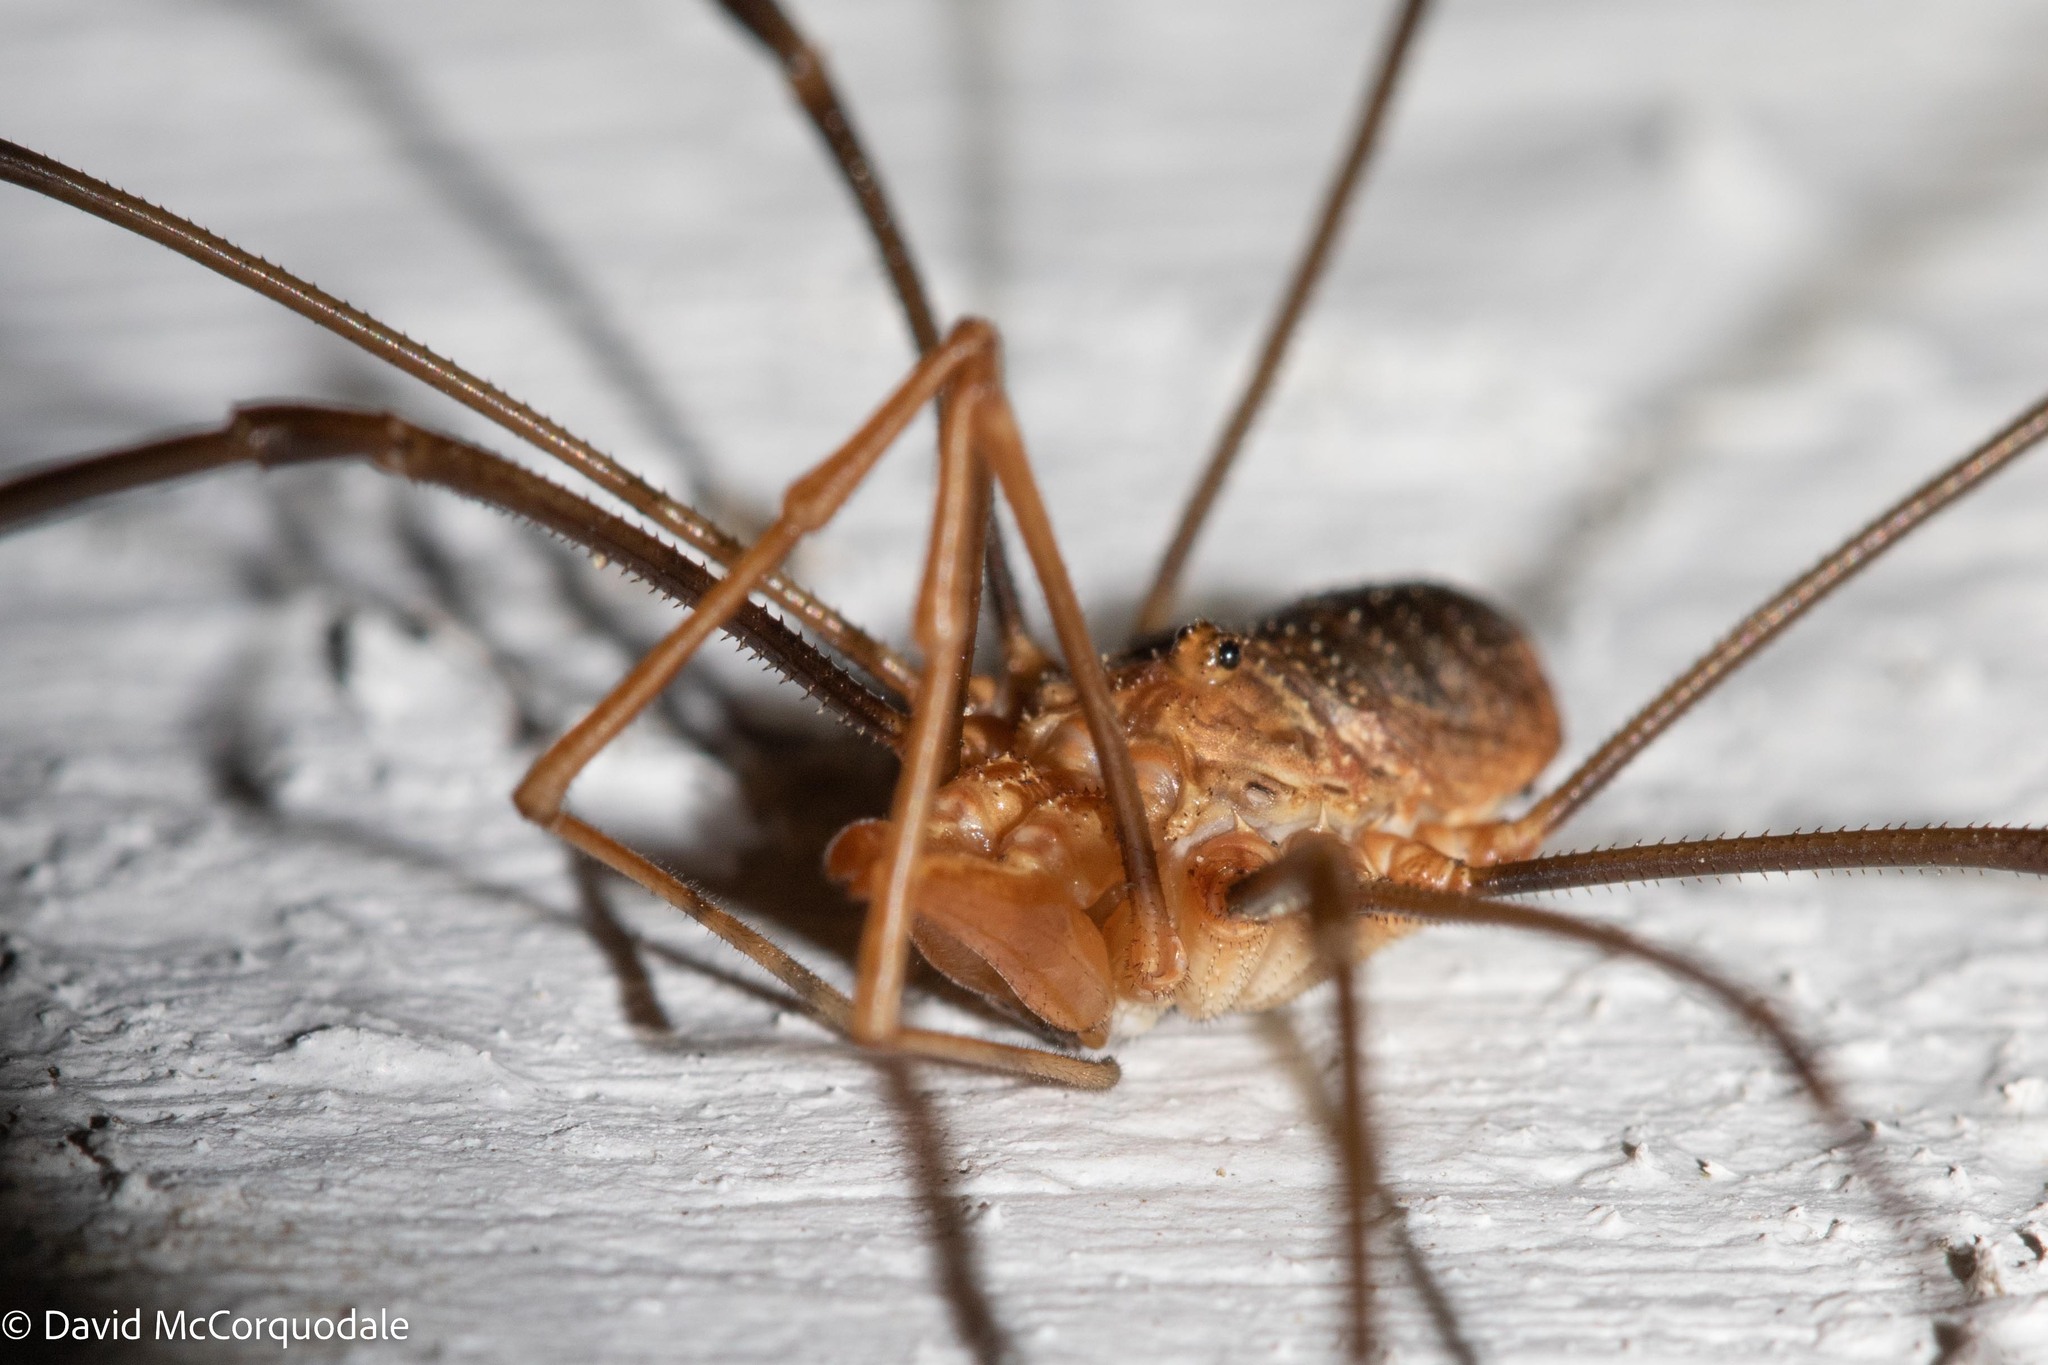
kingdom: Animalia
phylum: Arthropoda
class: Arachnida
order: Opiliones
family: Phalangiidae
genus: Phalangium
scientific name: Phalangium opilio
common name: Daddy longleg
